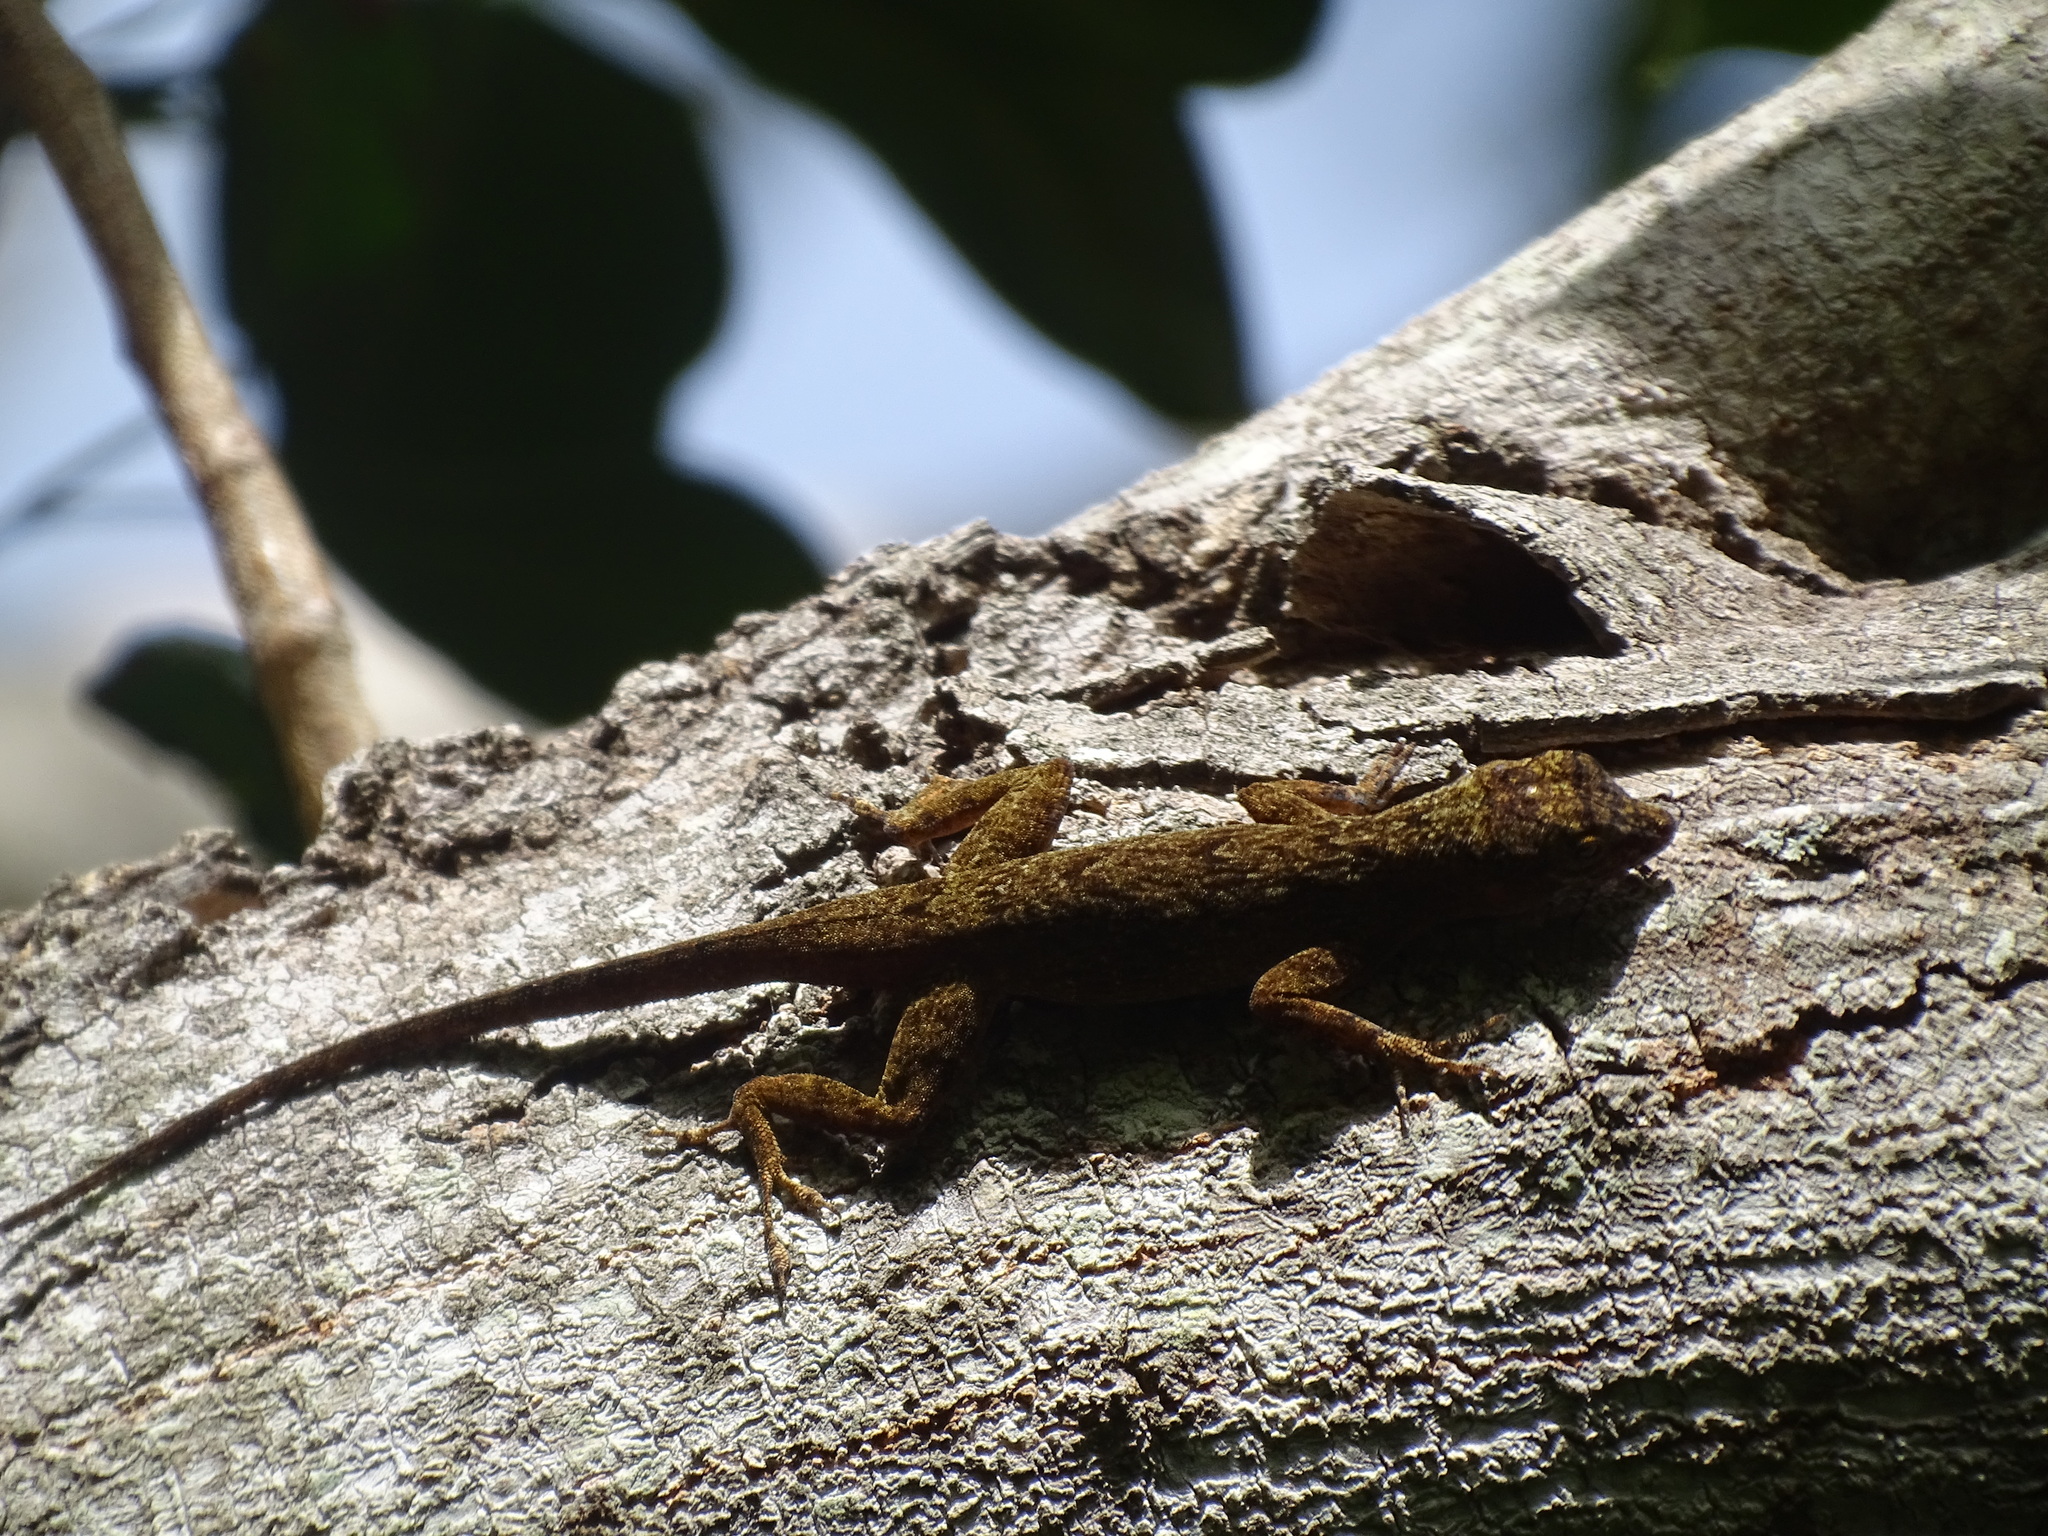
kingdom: Animalia
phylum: Chordata
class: Squamata
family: Dactyloidae
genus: Anolis
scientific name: Anolis distichus
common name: Bark anole
